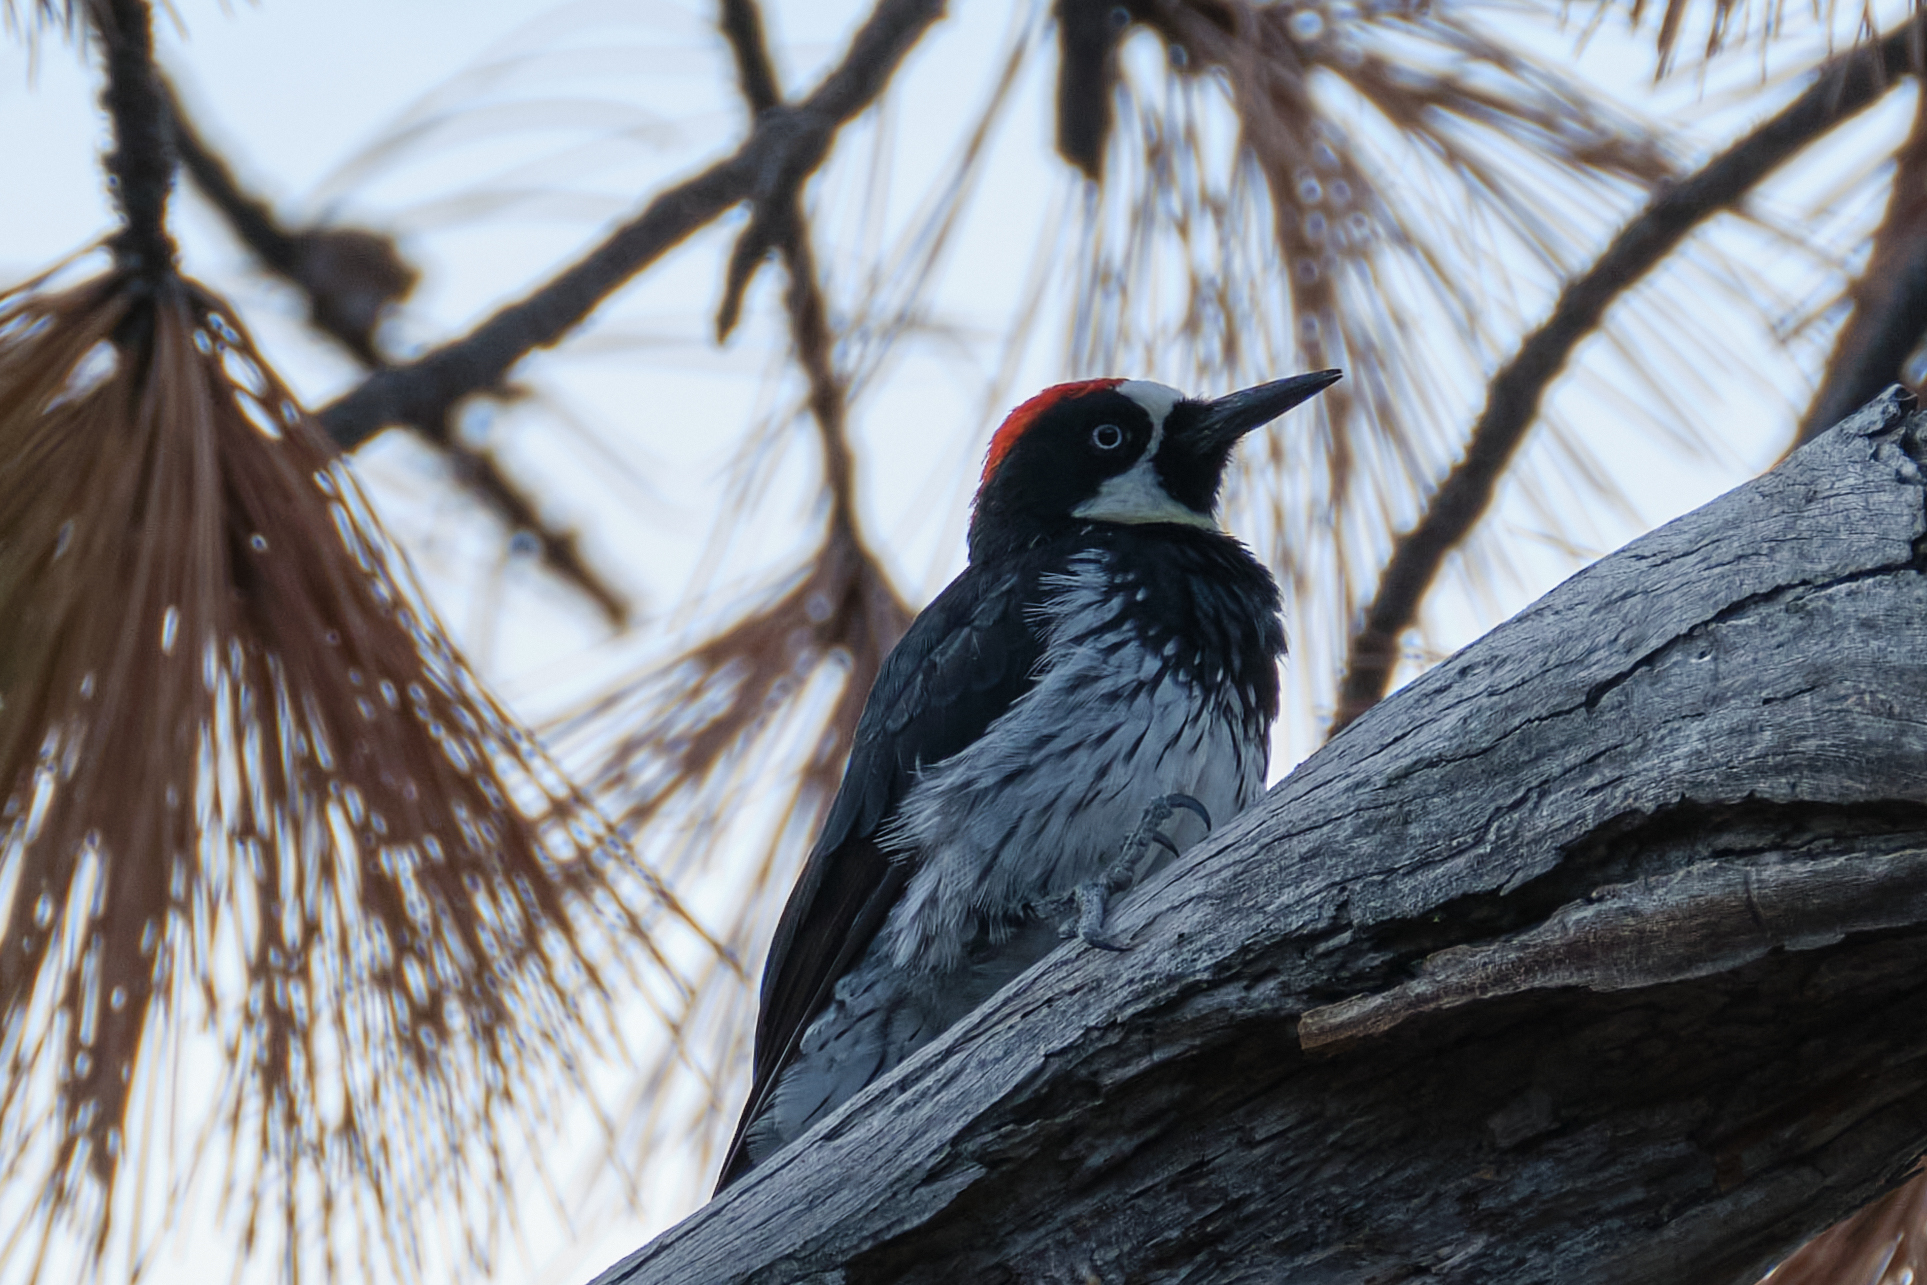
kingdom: Animalia
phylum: Chordata
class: Aves
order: Piciformes
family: Picidae
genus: Melanerpes
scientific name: Melanerpes formicivorus
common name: Acorn woodpecker
